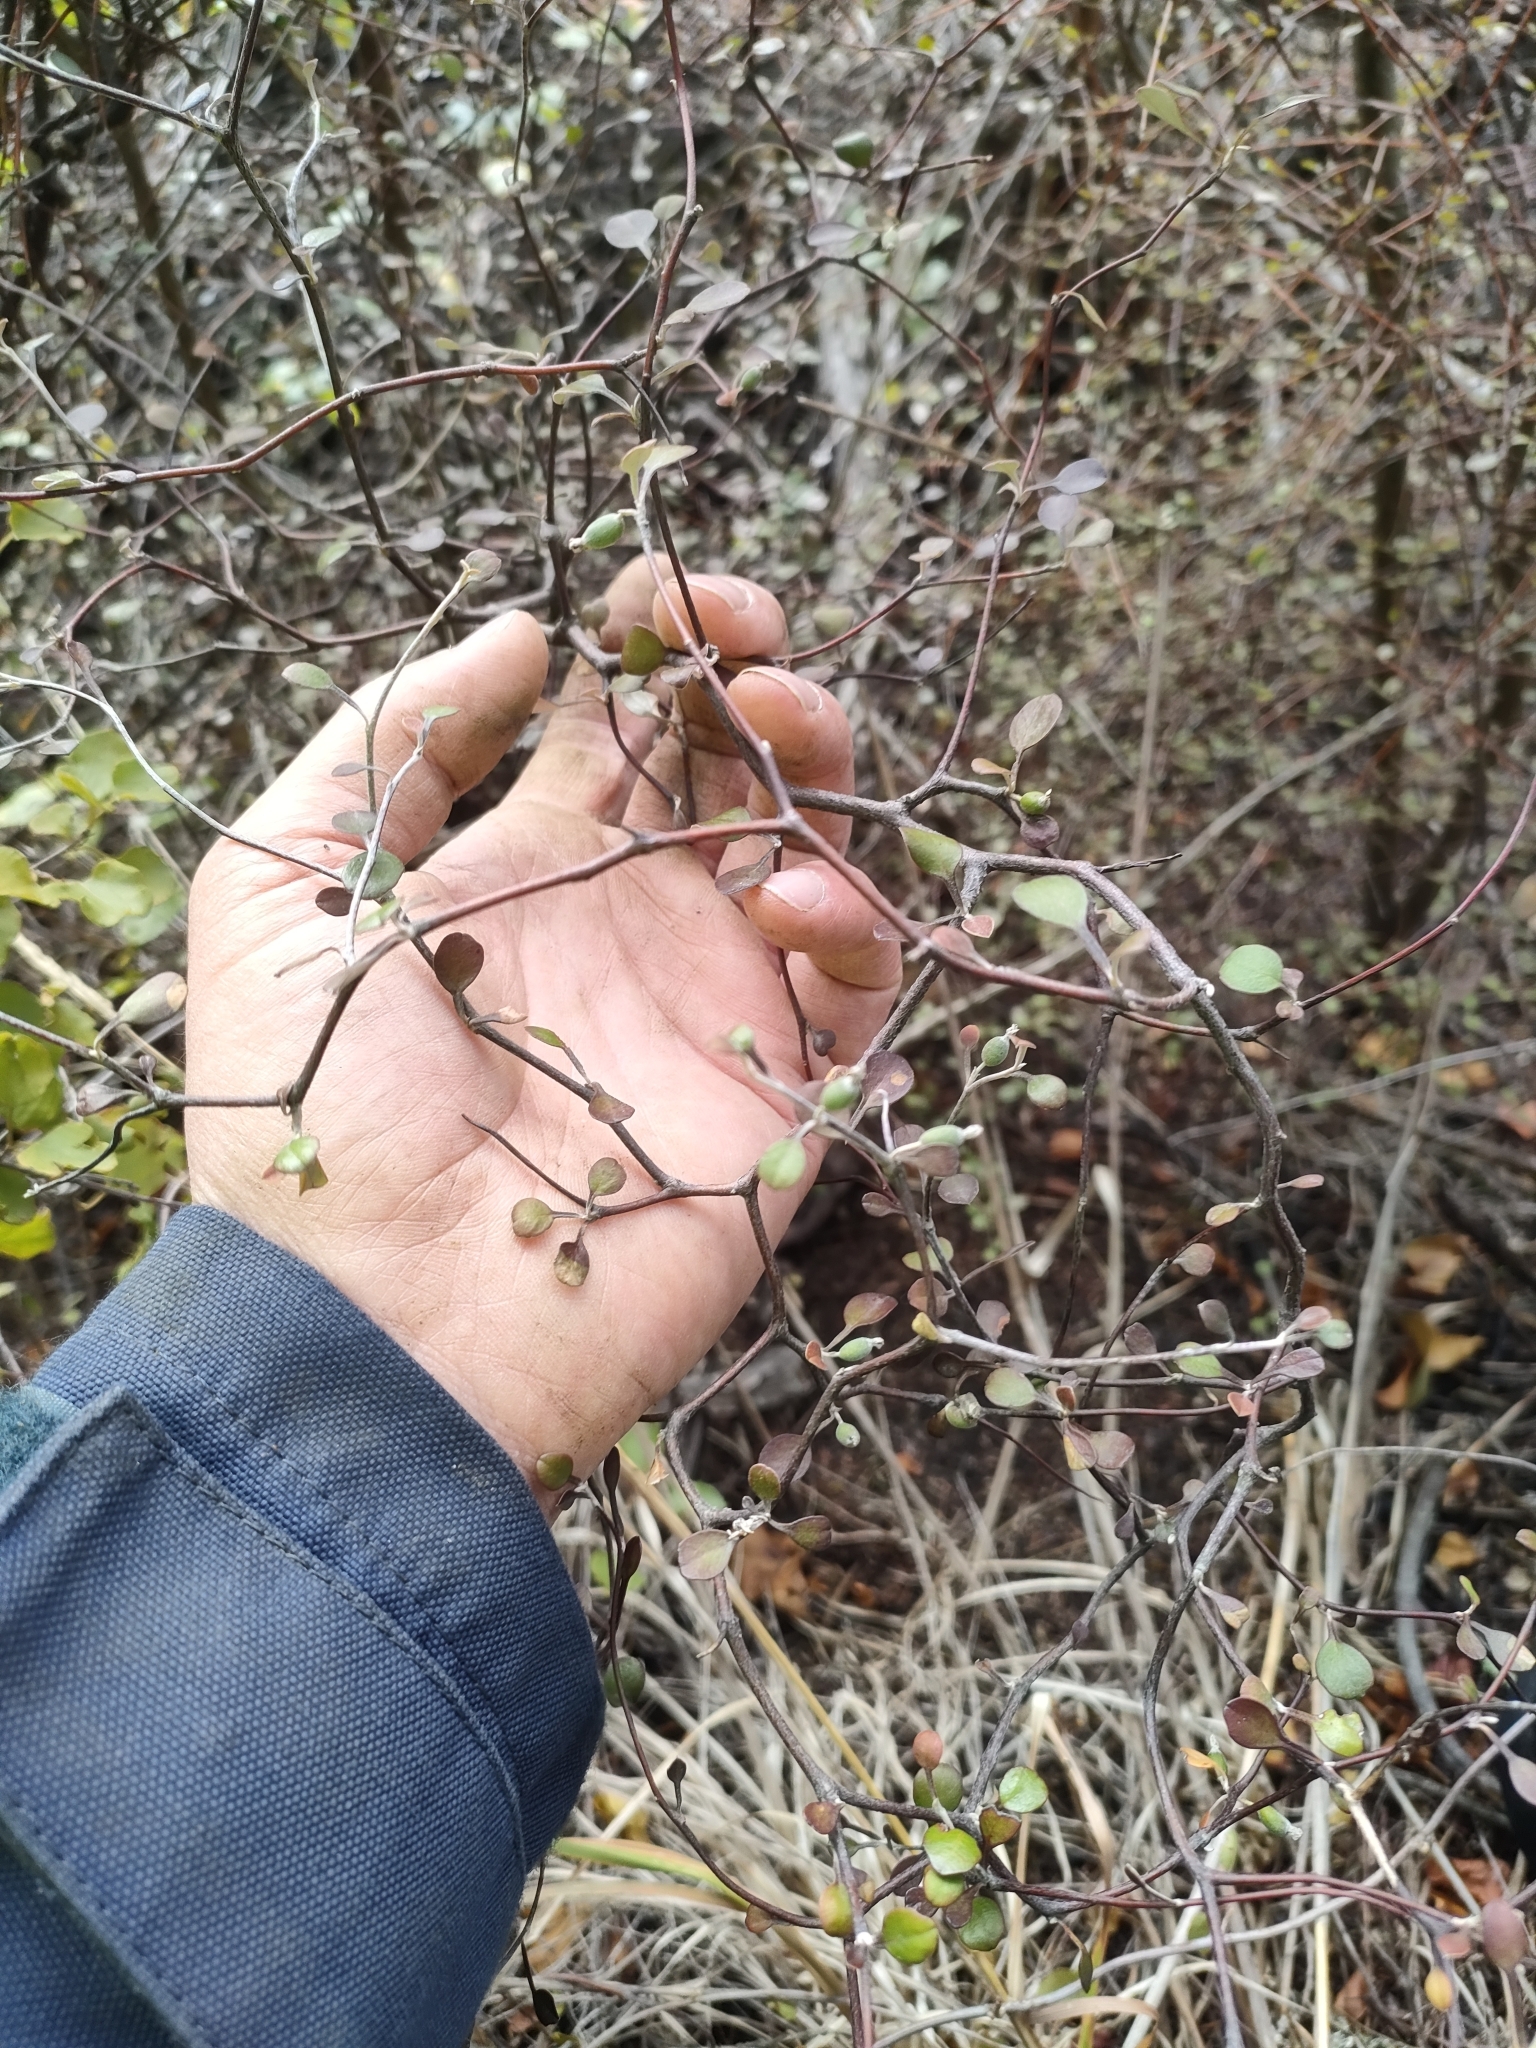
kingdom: Plantae
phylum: Tracheophyta
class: Magnoliopsida
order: Asterales
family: Argophyllaceae
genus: Corokia
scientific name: Corokia cotoneaster
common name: Wire nettingbush
